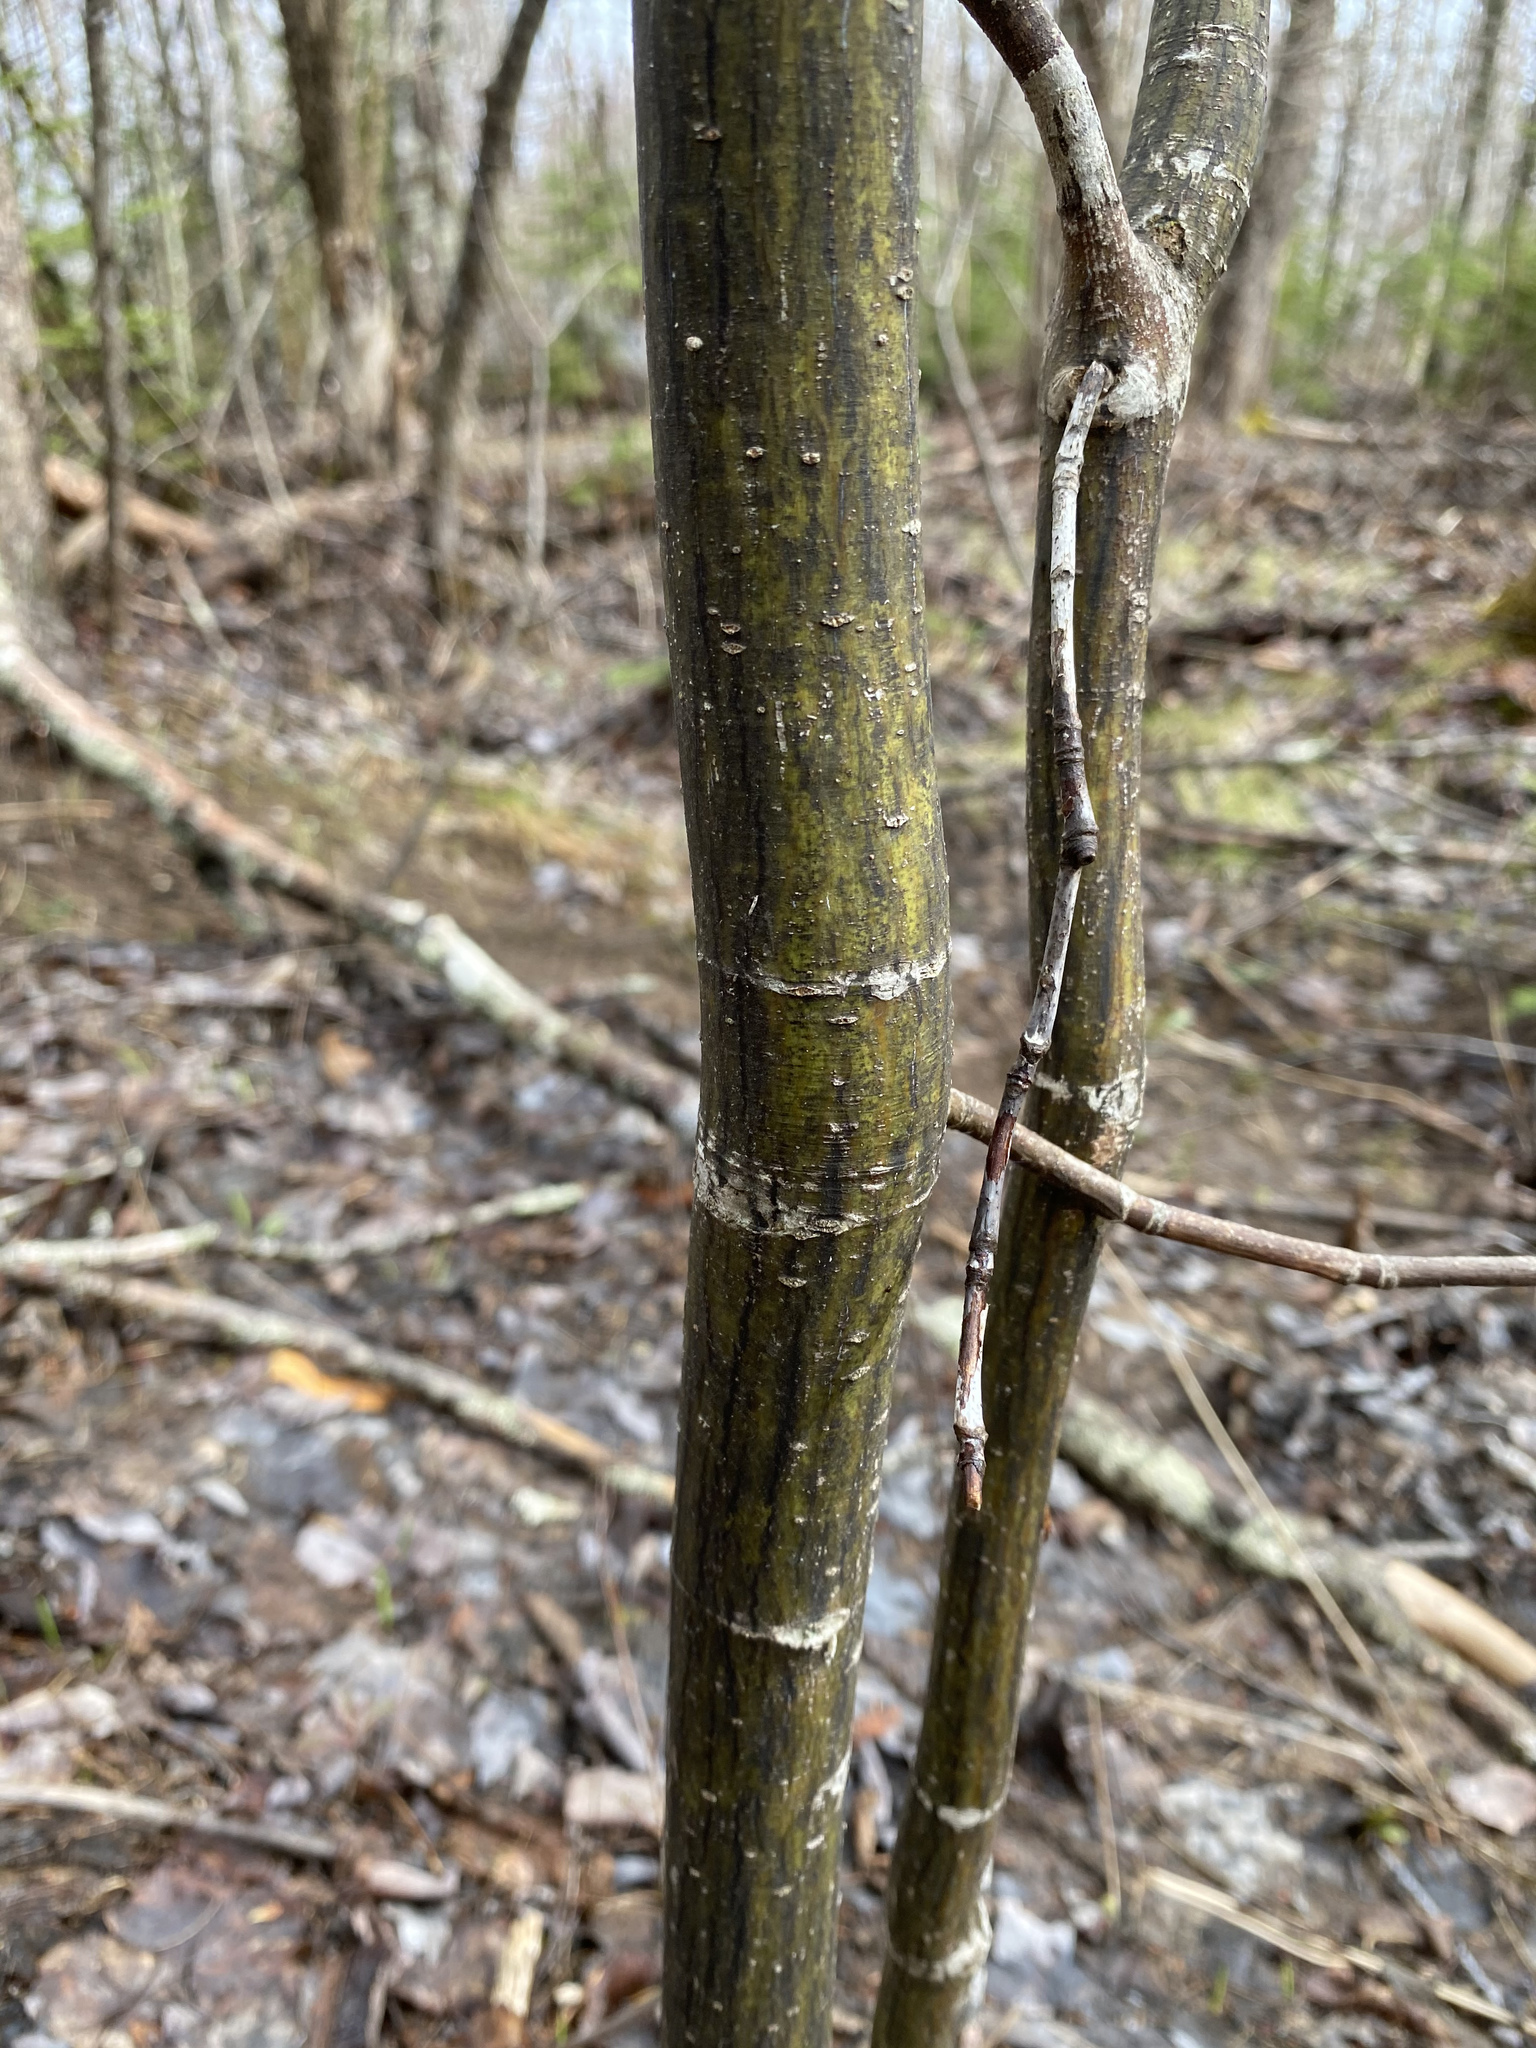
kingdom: Plantae
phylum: Tracheophyta
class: Magnoliopsida
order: Sapindales
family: Sapindaceae
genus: Acer
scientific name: Acer pensylvanicum
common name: Moosewood
